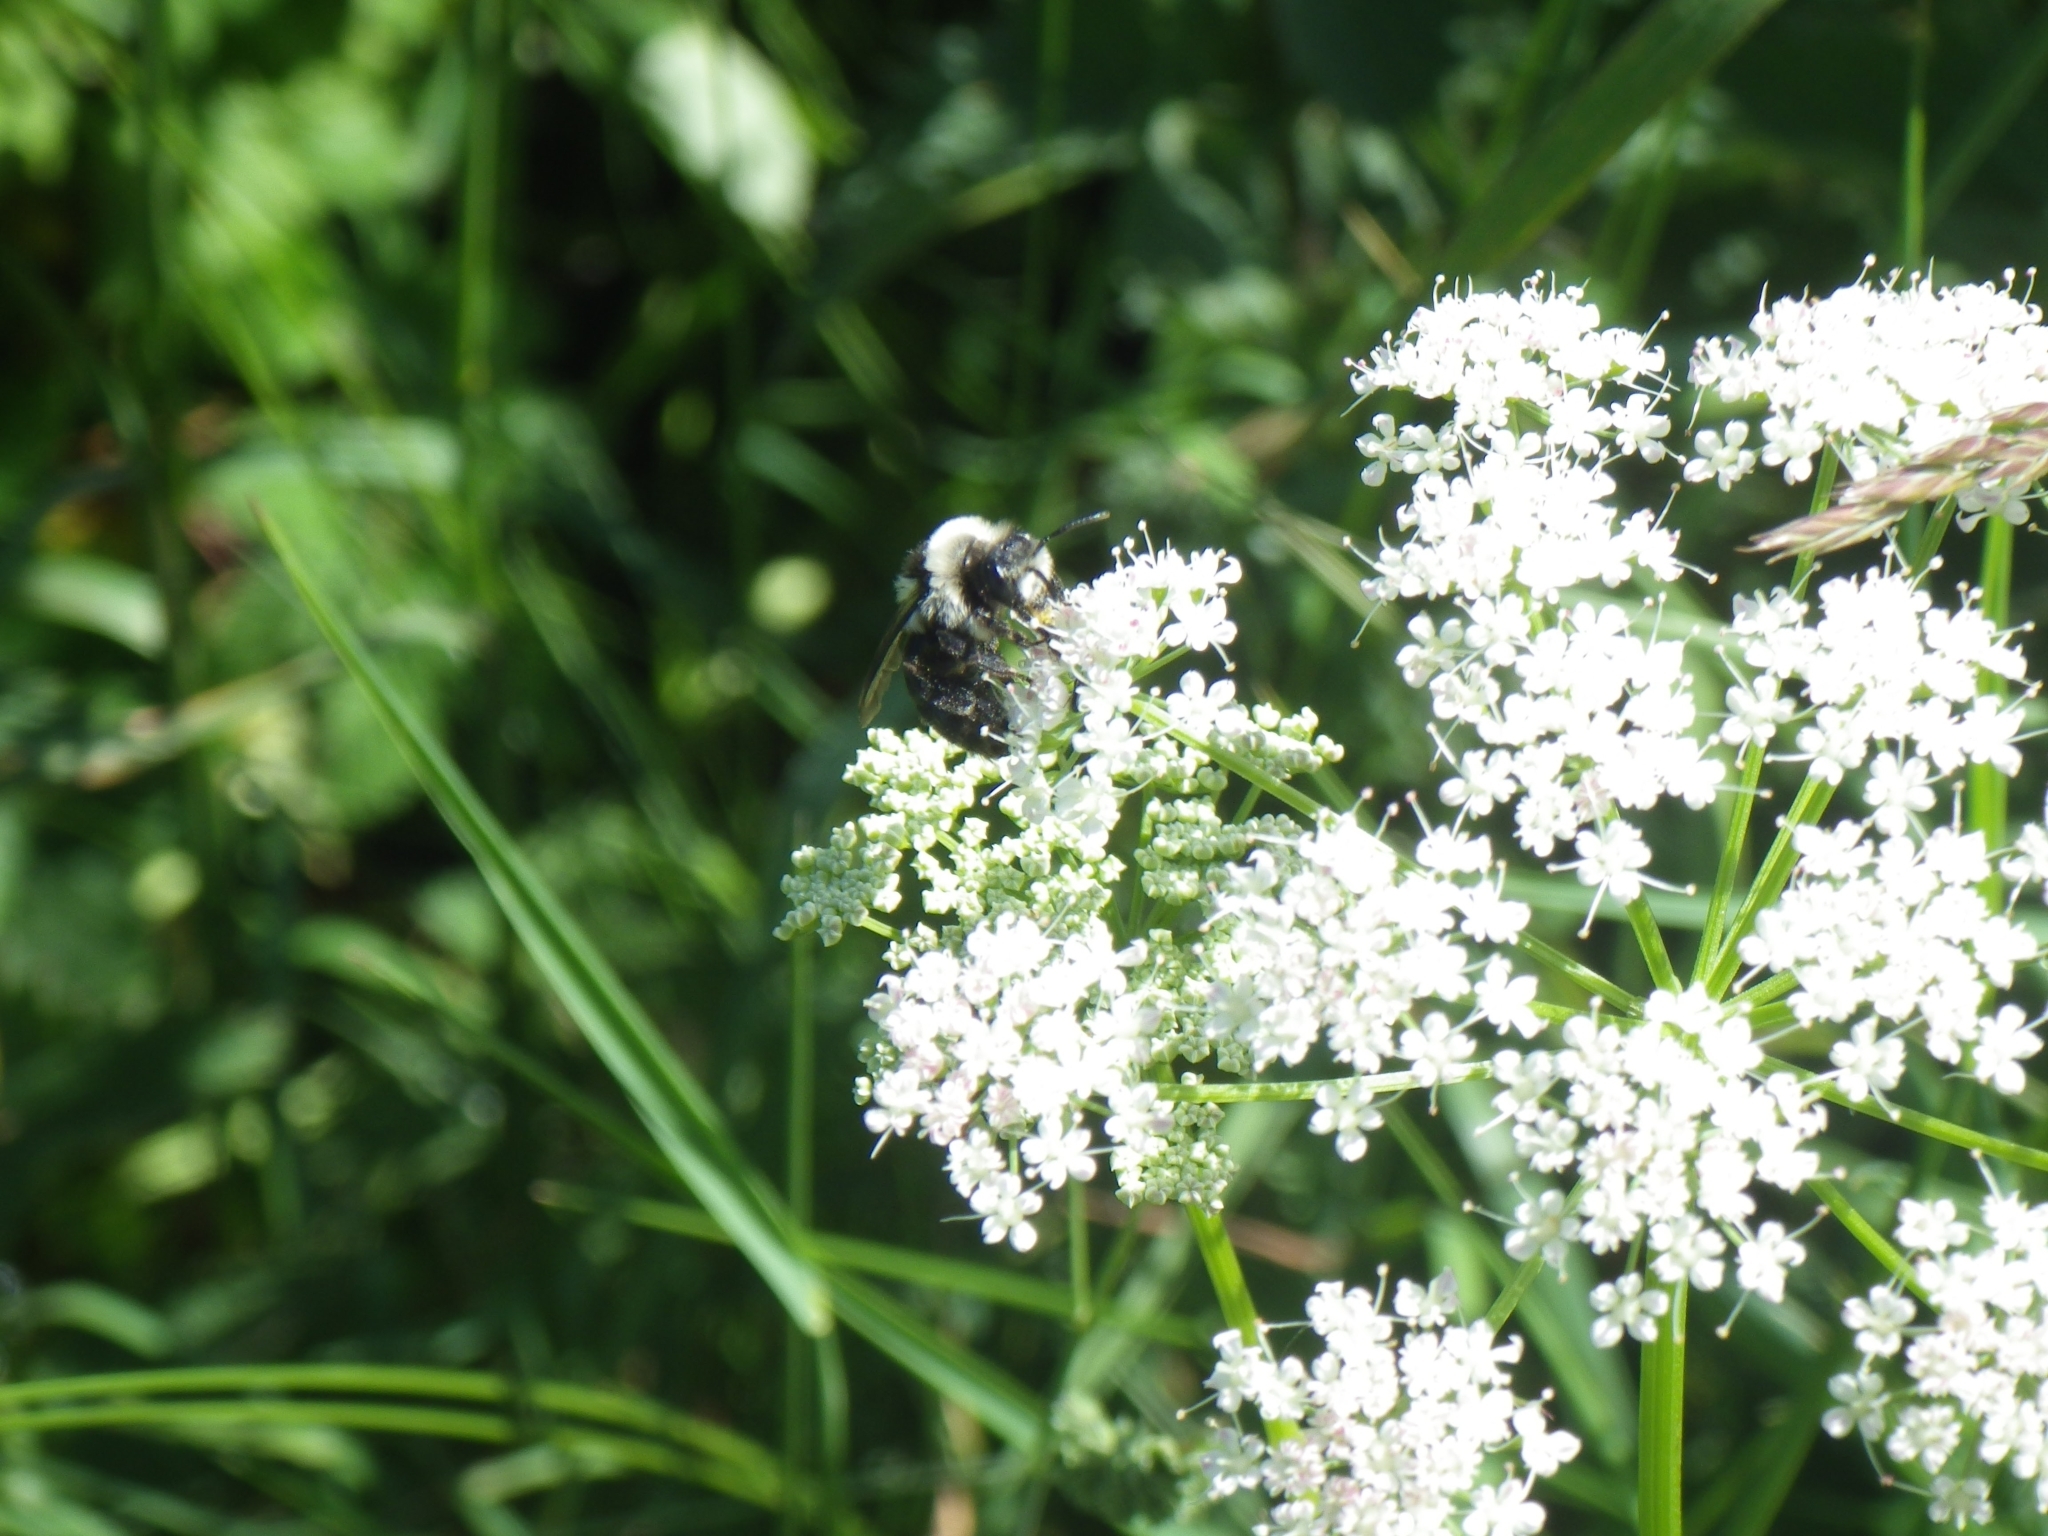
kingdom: Animalia
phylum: Arthropoda
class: Insecta
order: Hymenoptera
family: Andrenidae
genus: Andrena
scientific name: Andrena cineraria
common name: Ashy mining bee
